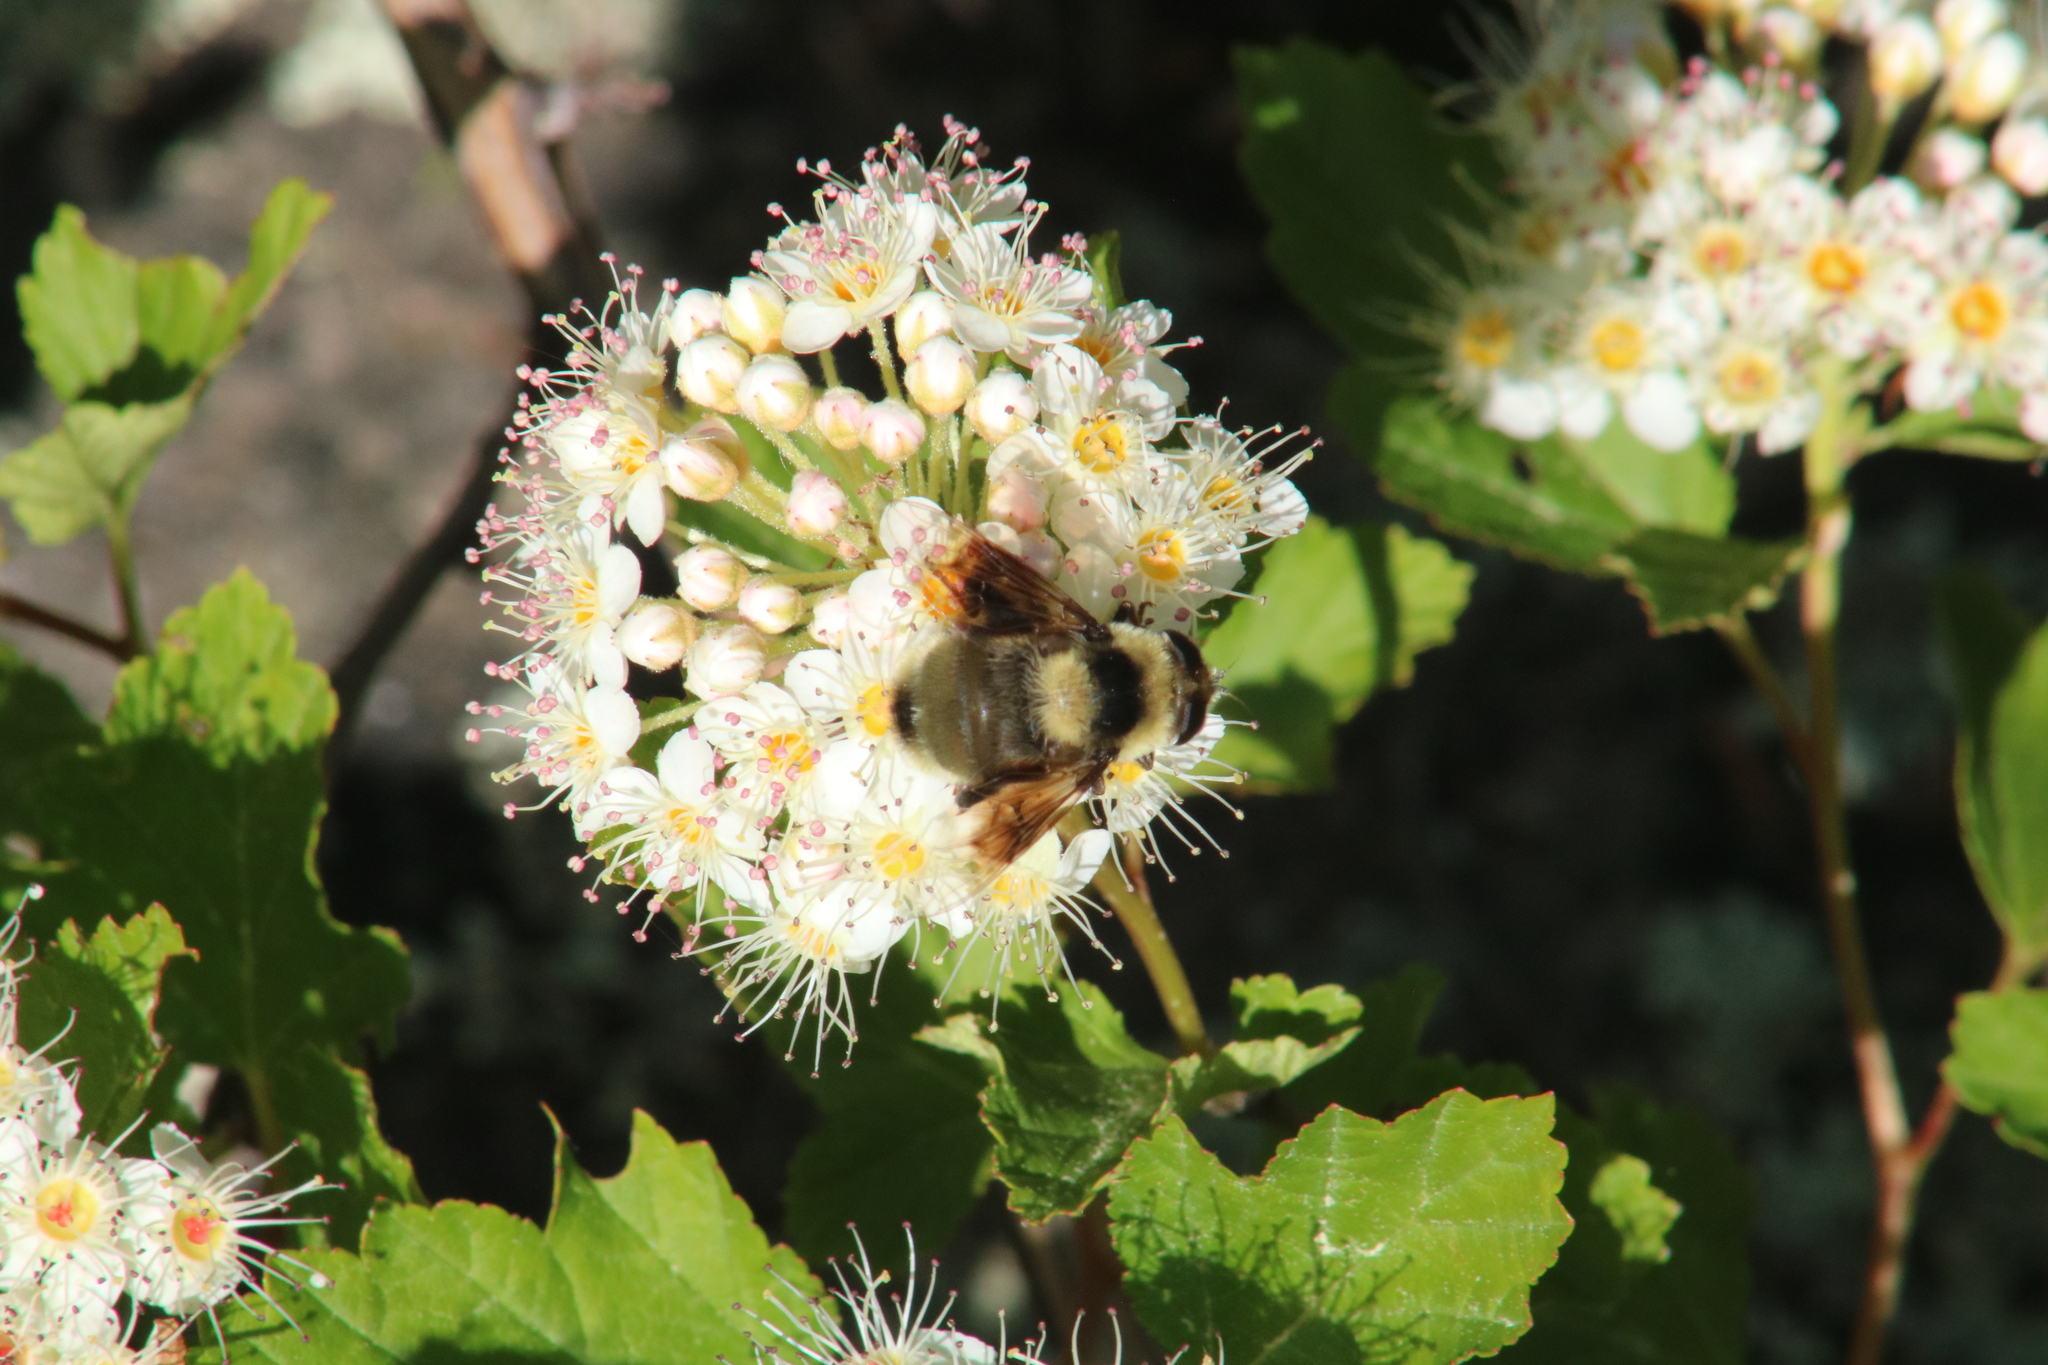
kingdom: Animalia
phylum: Arthropoda
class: Insecta
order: Diptera
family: Syrphidae
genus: Eristalis
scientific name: Eristalis flavipes
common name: Orange-legged drone fly
